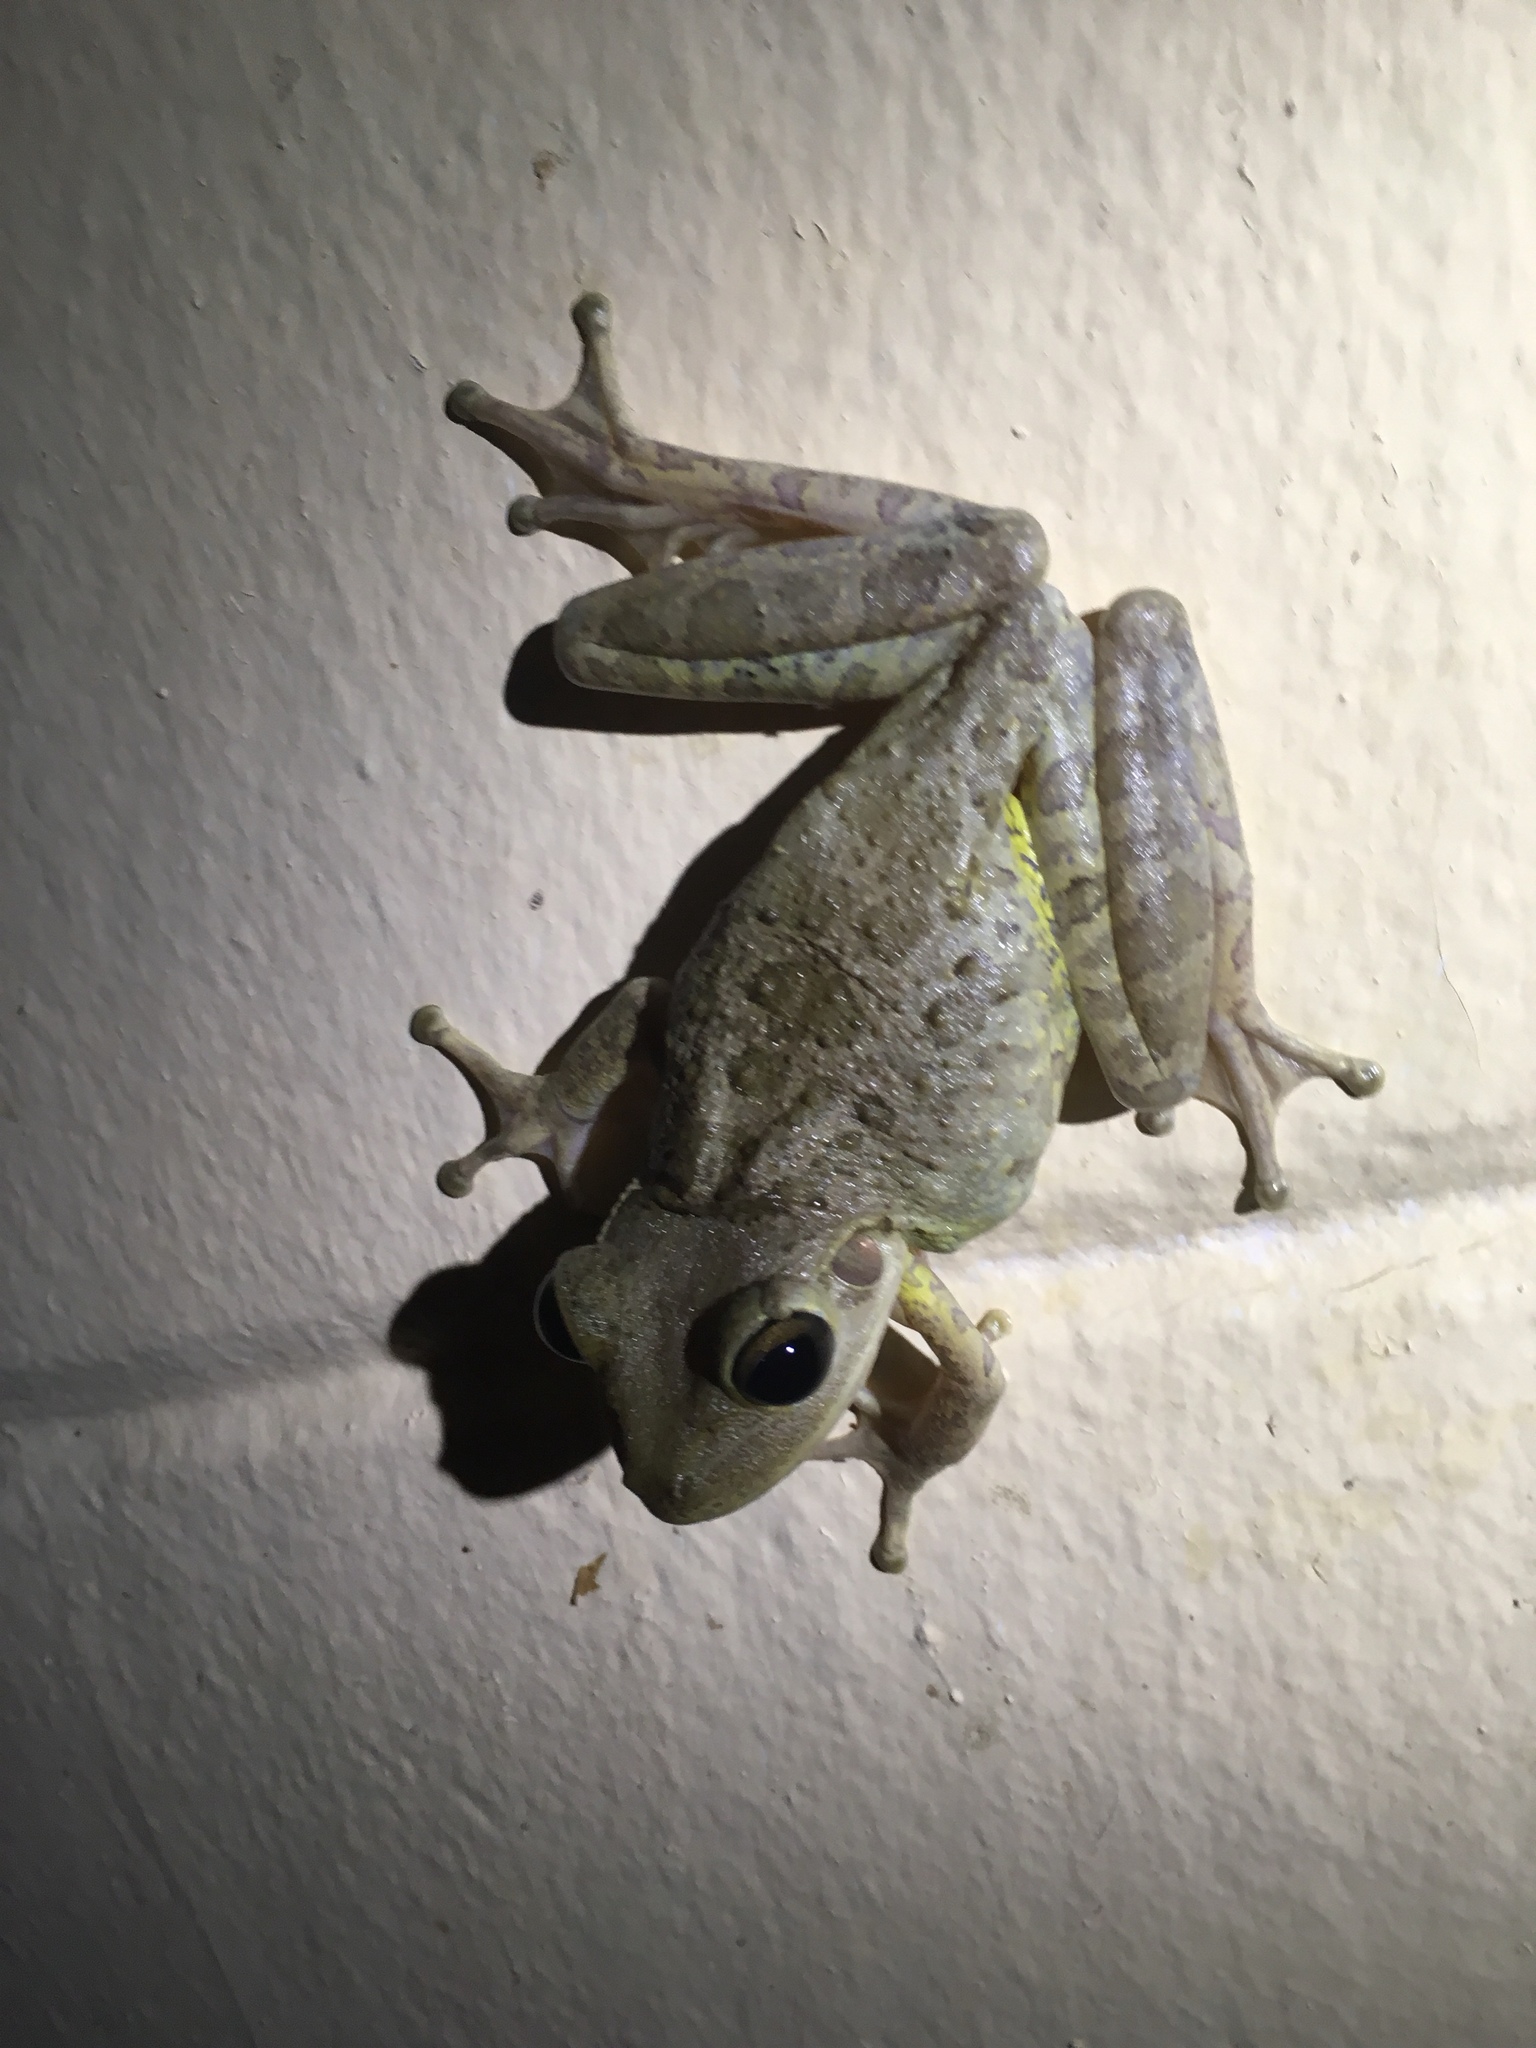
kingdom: Animalia
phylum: Chordata
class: Amphibia
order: Anura
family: Hylidae
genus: Osteopilus
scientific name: Osteopilus septentrionalis
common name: Cuban treefrog
